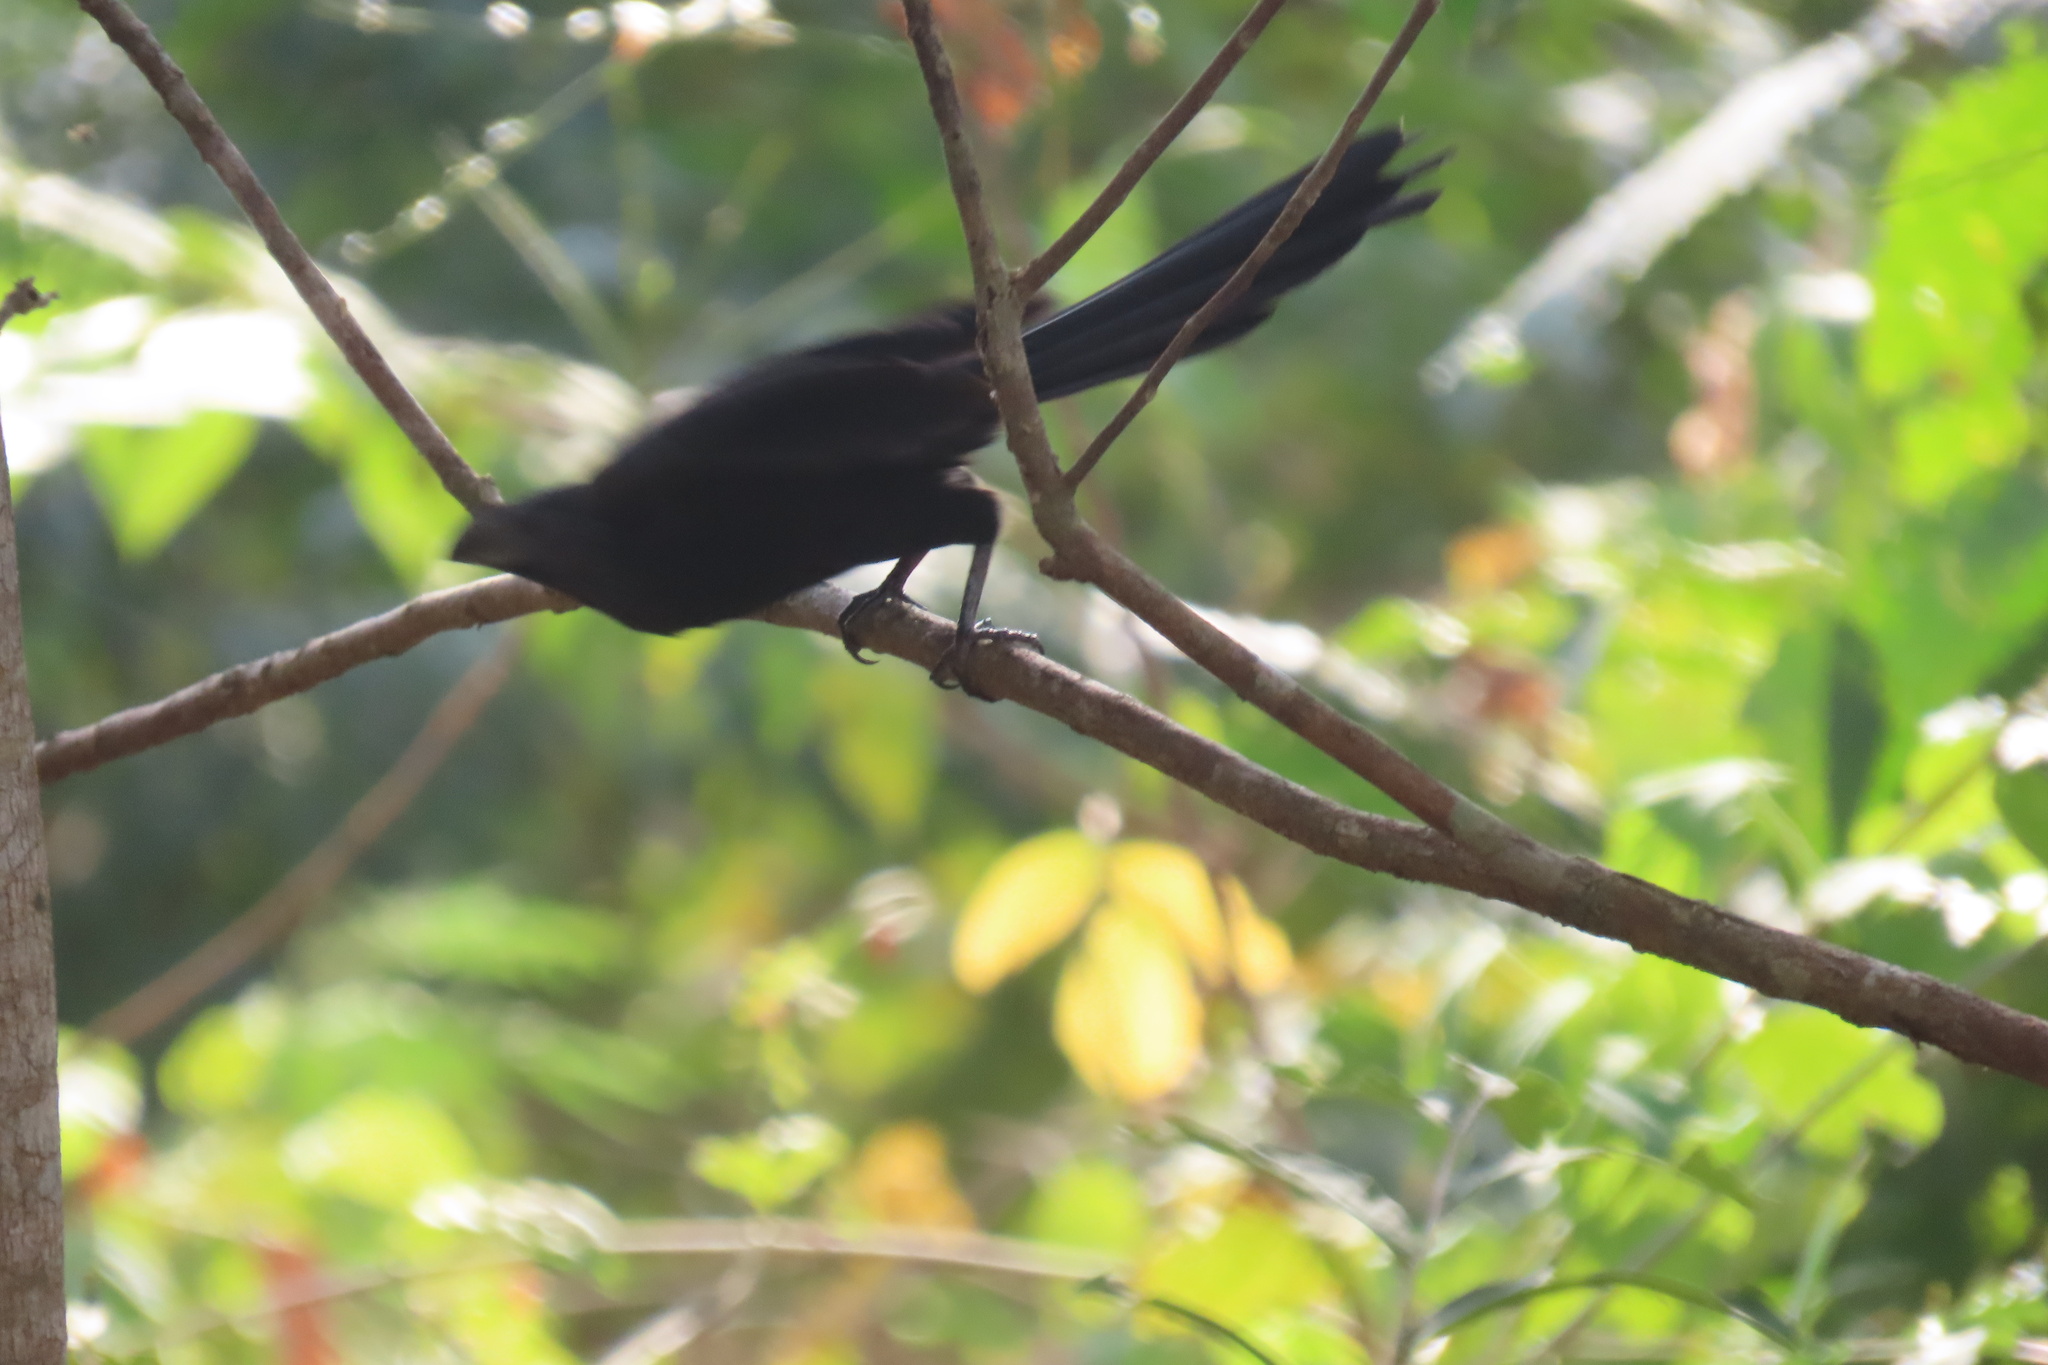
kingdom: Animalia
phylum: Chordata
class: Aves
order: Cuculiformes
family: Cuculidae
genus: Crotophaga
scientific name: Crotophaga sulcirostris
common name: Groove-billed ani
